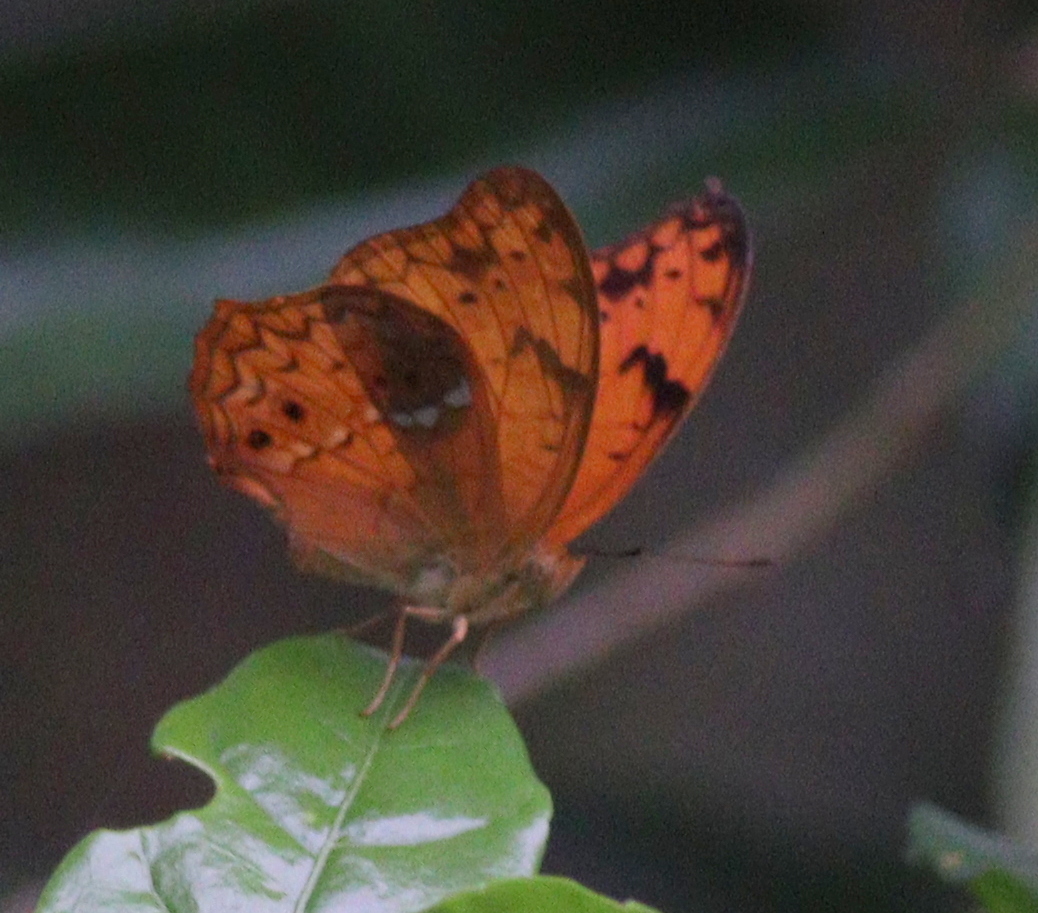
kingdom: Animalia
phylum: Arthropoda
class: Insecta
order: Lepidoptera
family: Nymphalidae
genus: Lachnoptera
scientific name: Lachnoptera ayresii
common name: Blotched leopard
